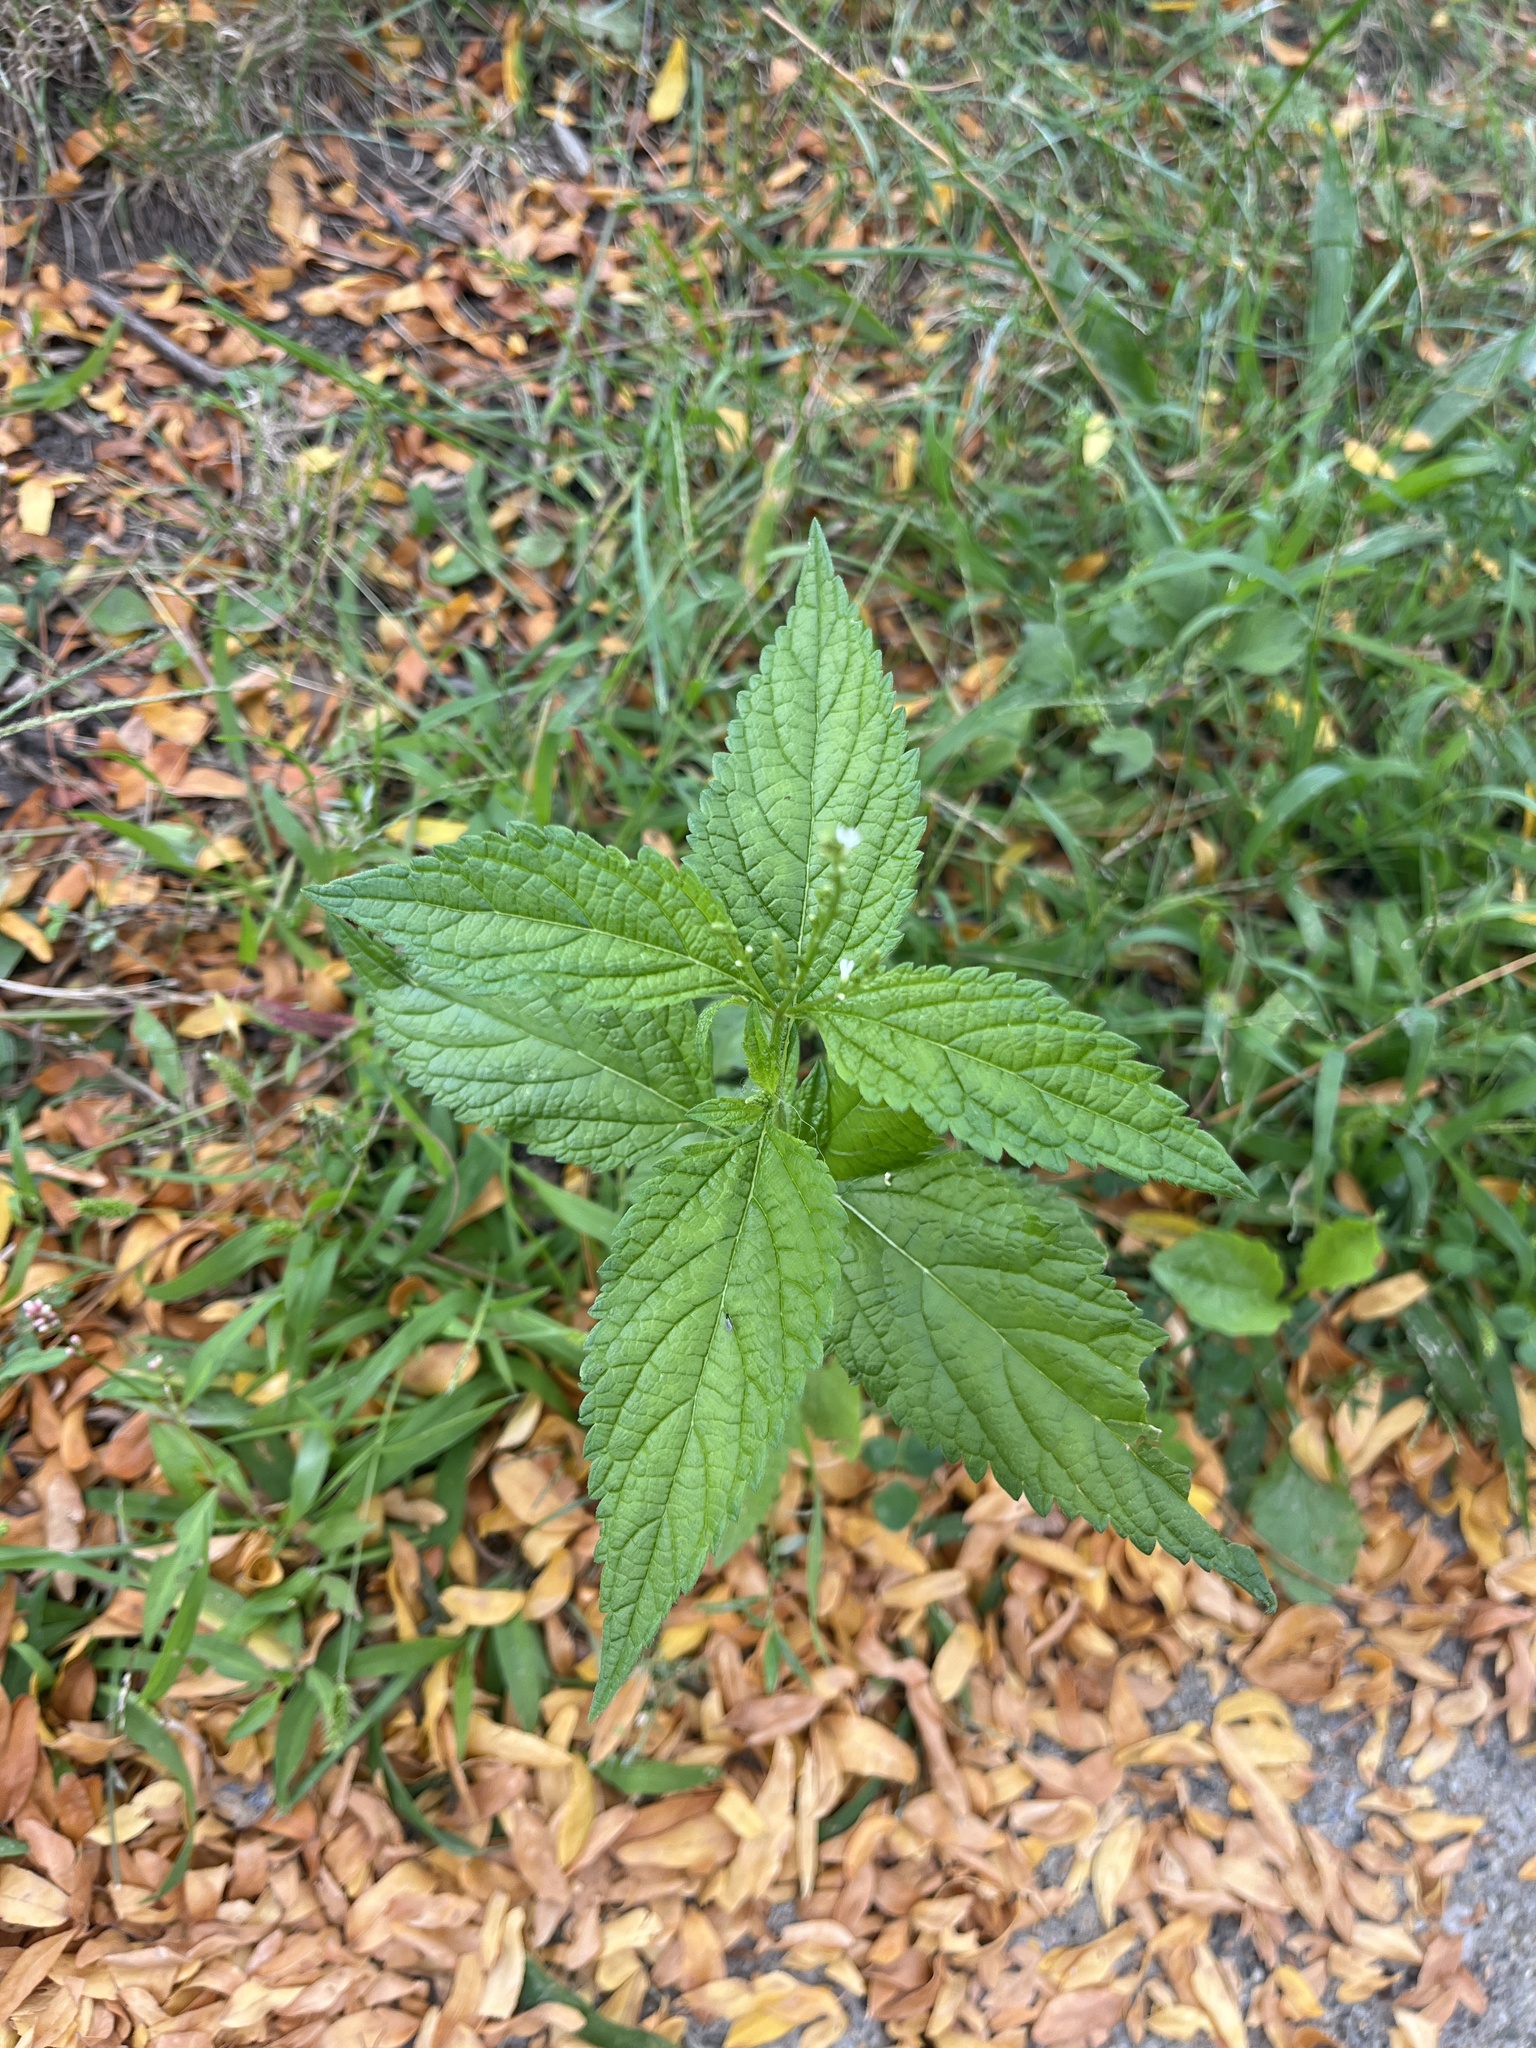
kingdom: Plantae
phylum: Tracheophyta
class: Magnoliopsida
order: Lamiales
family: Verbenaceae
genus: Verbena
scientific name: Verbena urticifolia
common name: Nettle-leaved vervain
